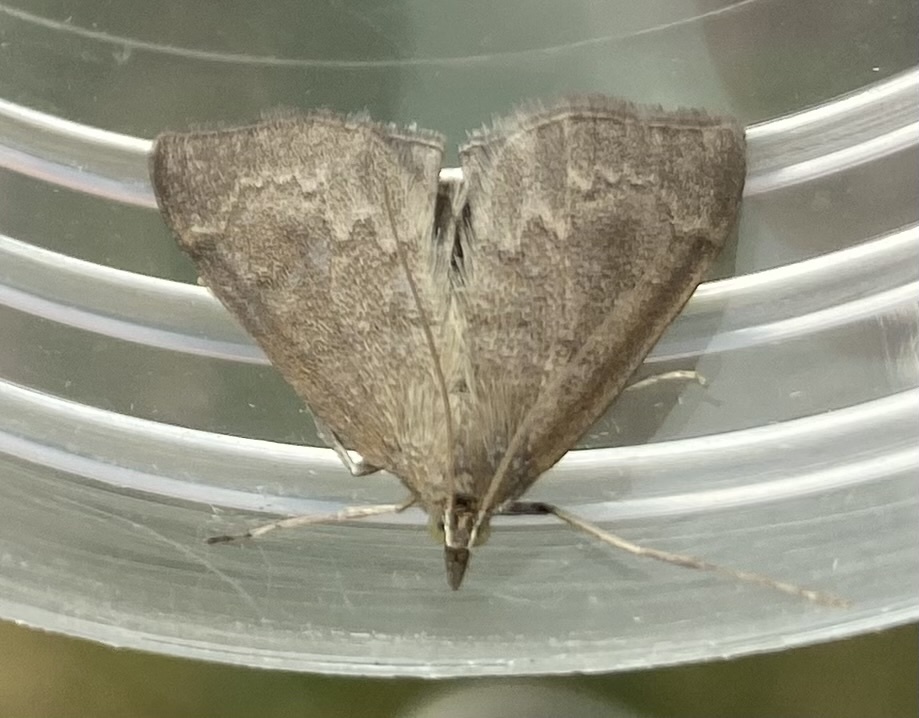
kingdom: Animalia
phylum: Arthropoda
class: Insecta
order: Lepidoptera
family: Crambidae
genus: Anania
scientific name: Anania fuscalis
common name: Cinerous pearl
